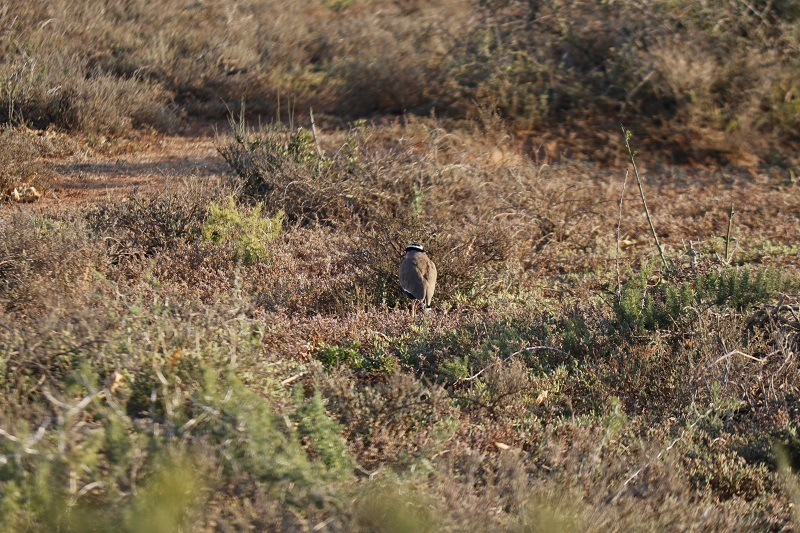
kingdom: Animalia
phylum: Chordata
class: Aves
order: Charadriiformes
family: Charadriidae
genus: Vanellus
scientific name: Vanellus coronatus
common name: Crowned lapwing
